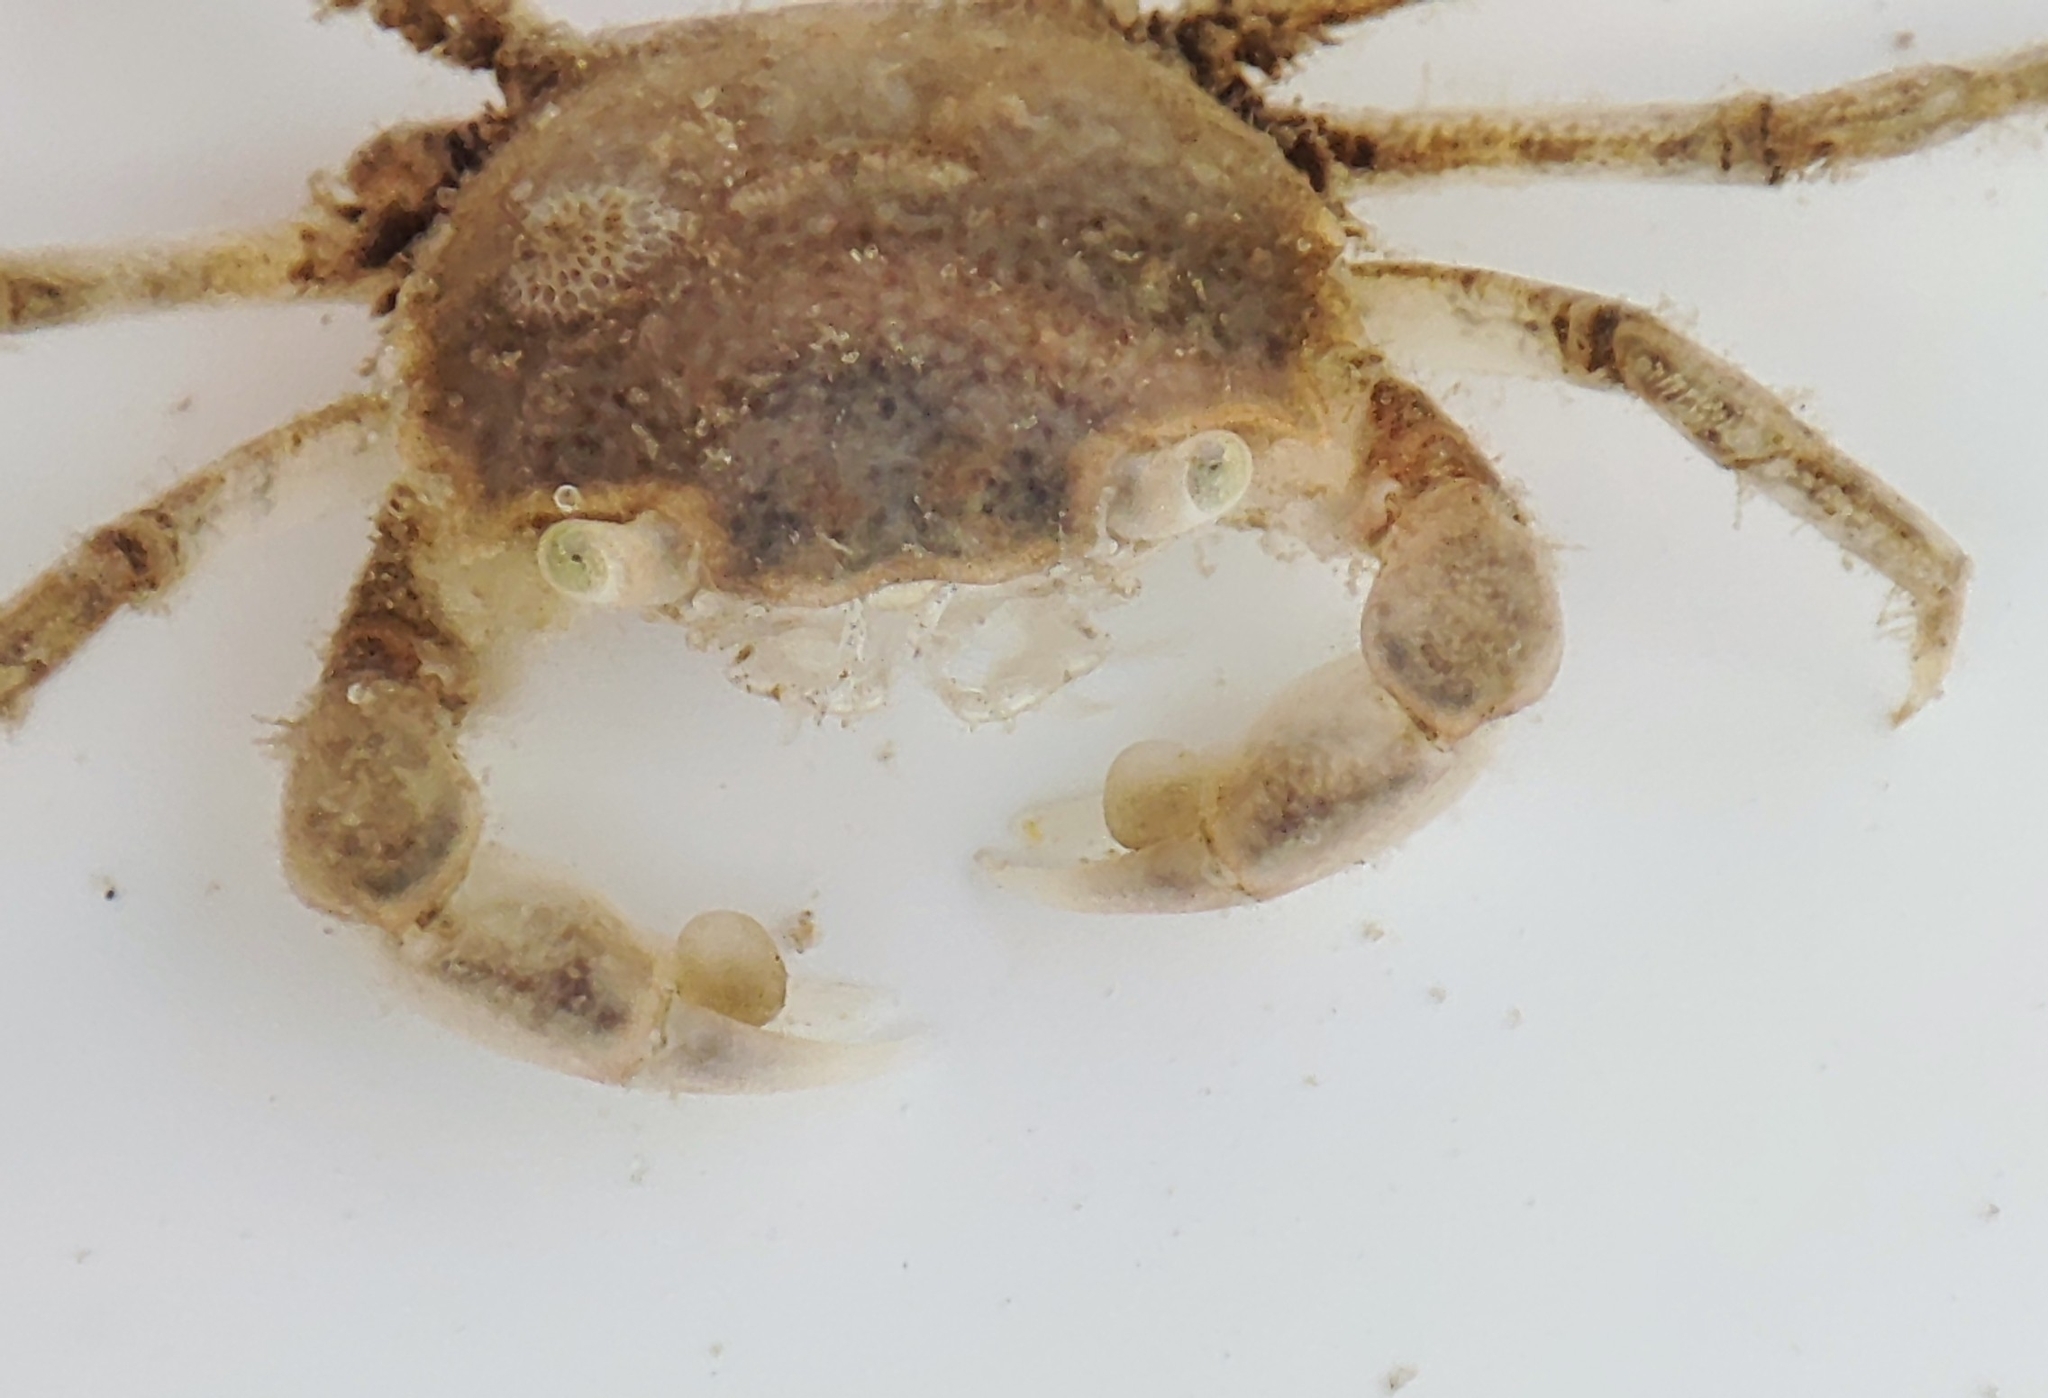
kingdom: Animalia
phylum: Arthropoda
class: Malacostraca
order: Decapoda
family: Varunidae
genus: Brachynotus
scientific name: Brachynotus sexdentatus
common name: Mediterranean crab
